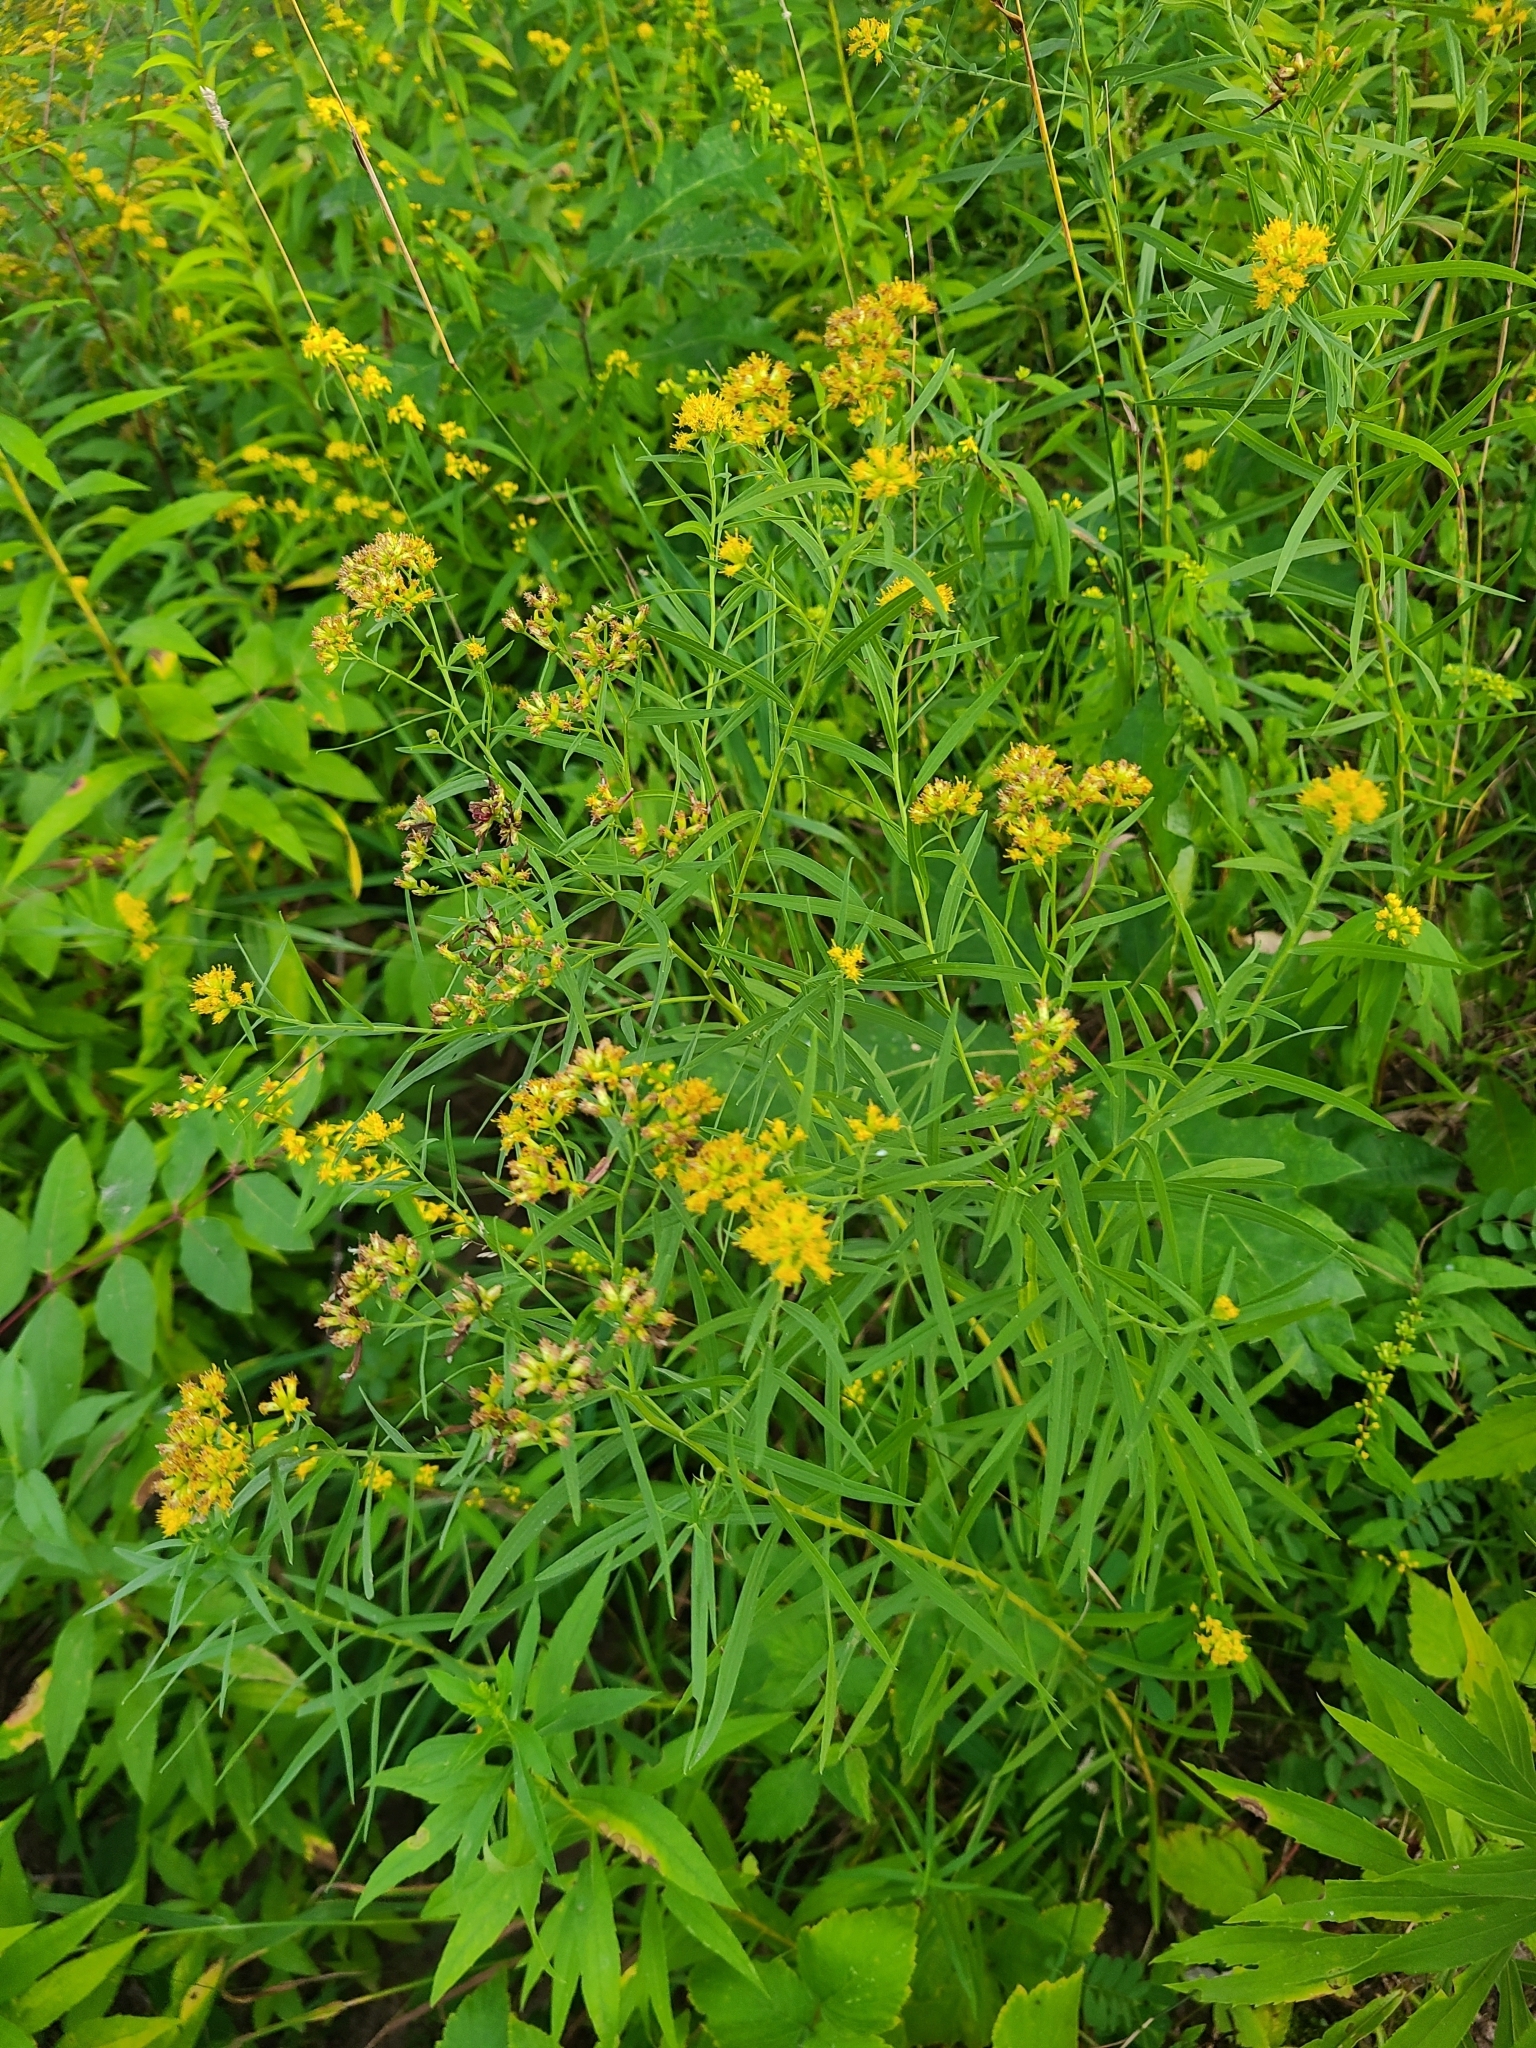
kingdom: Plantae
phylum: Tracheophyta
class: Magnoliopsida
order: Asterales
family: Asteraceae
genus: Euthamia
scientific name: Euthamia graminifolia
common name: Common goldentop
